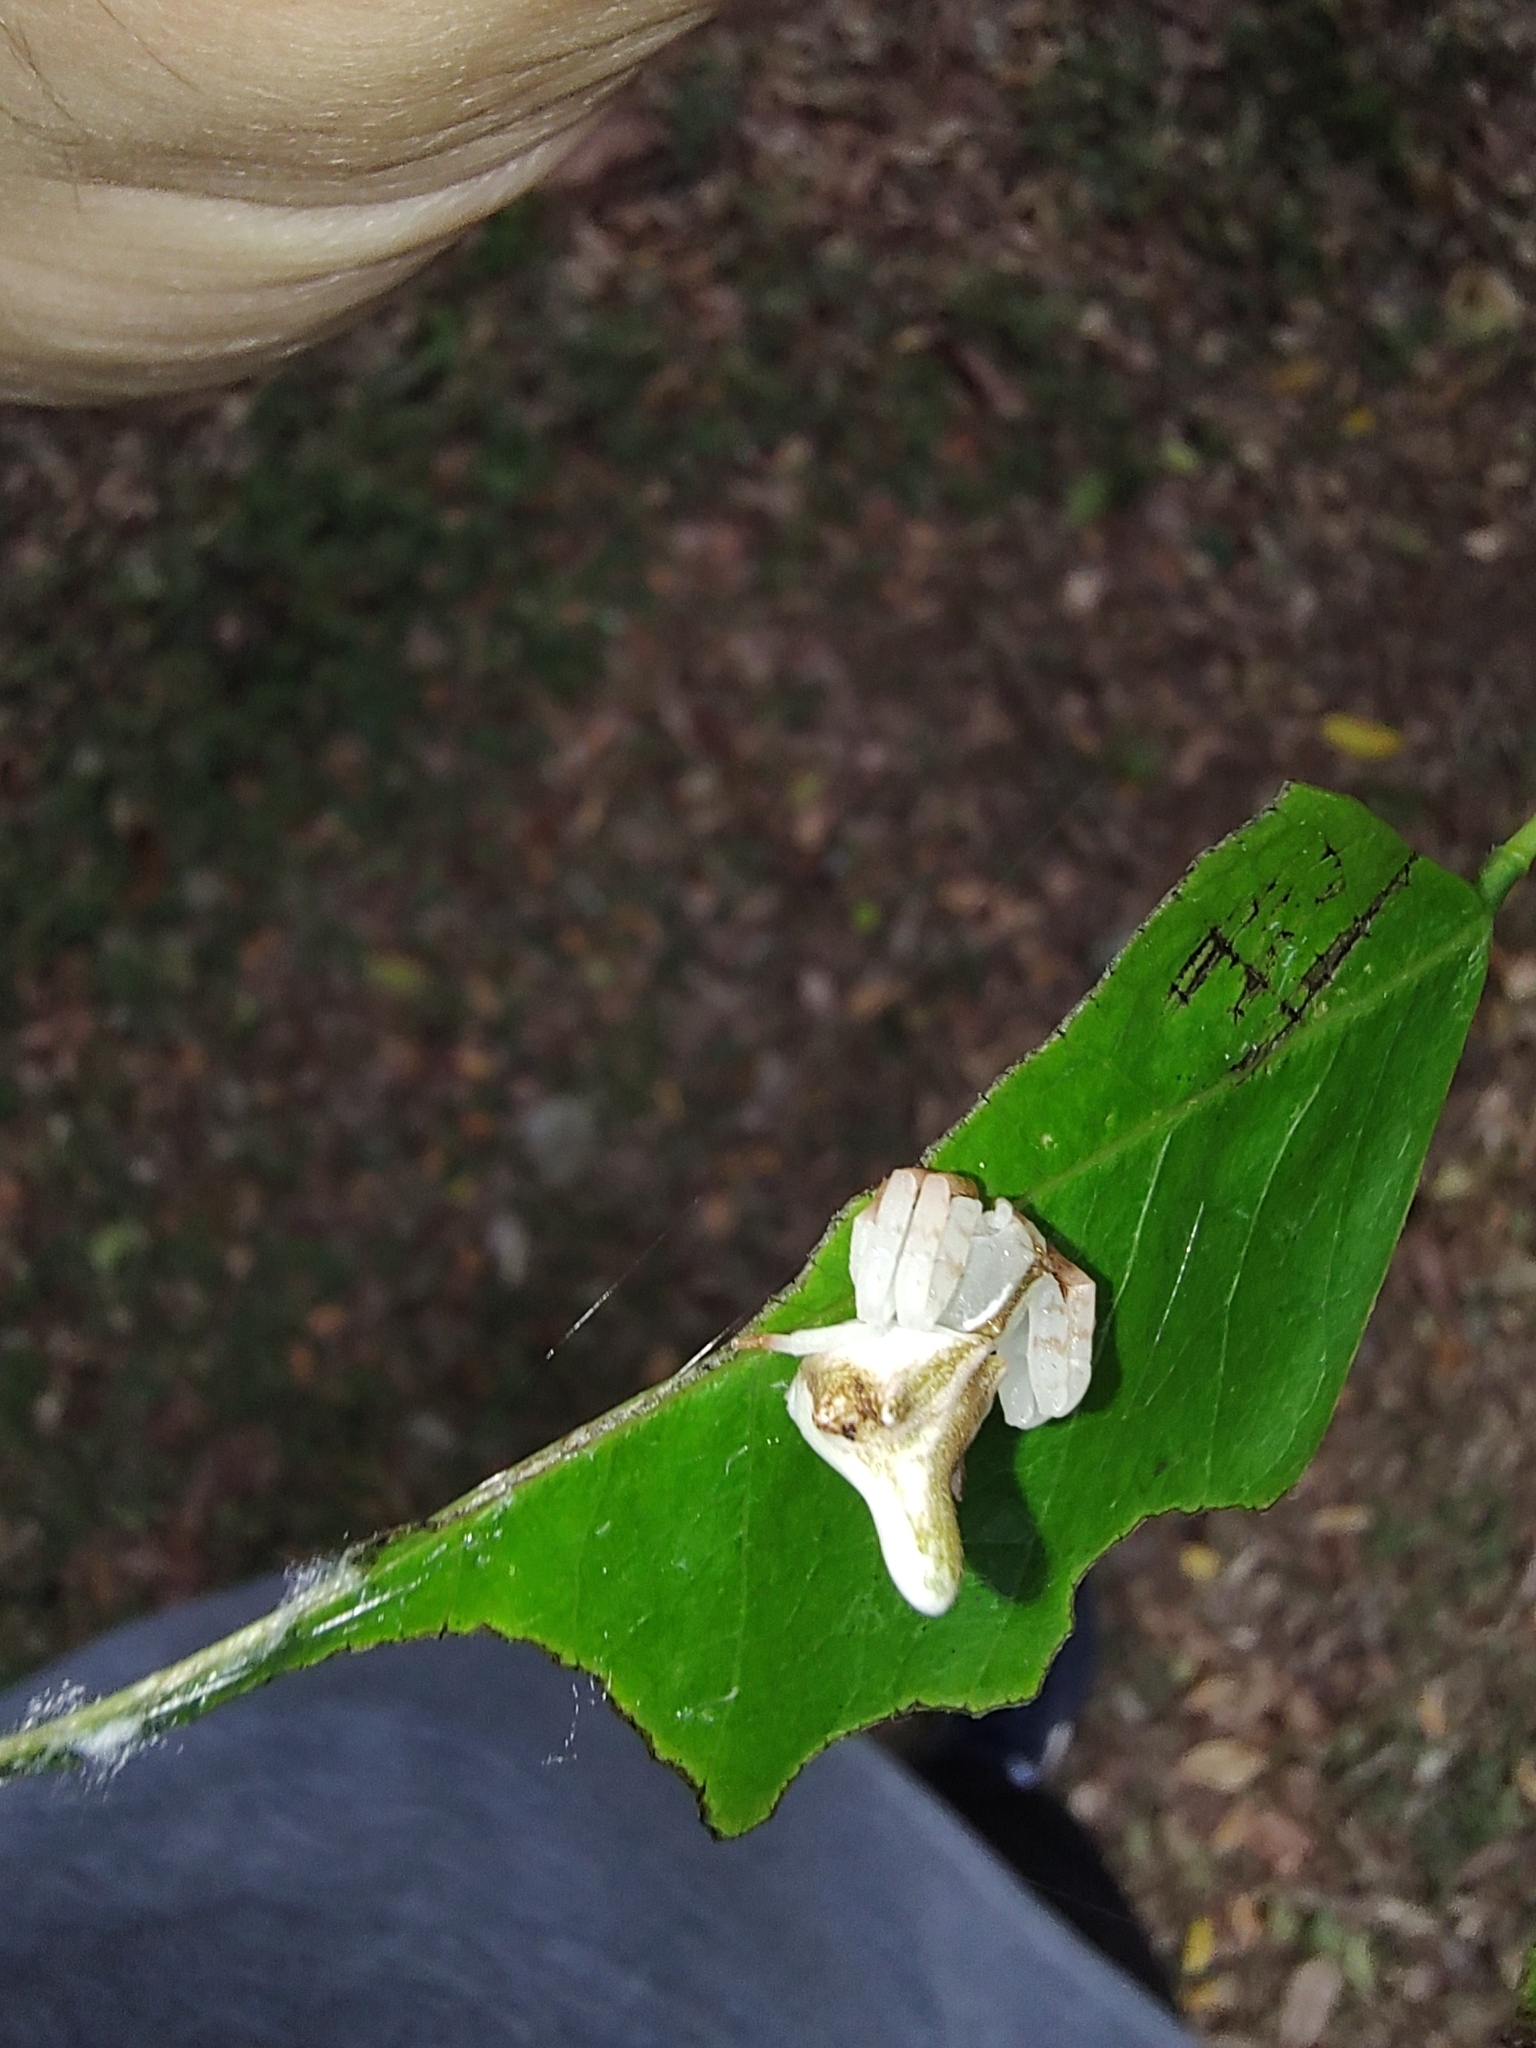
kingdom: Animalia
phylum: Arthropoda
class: Arachnida
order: Araneae
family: Thomisidae
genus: Epicadus
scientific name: Epicadus rubripes
